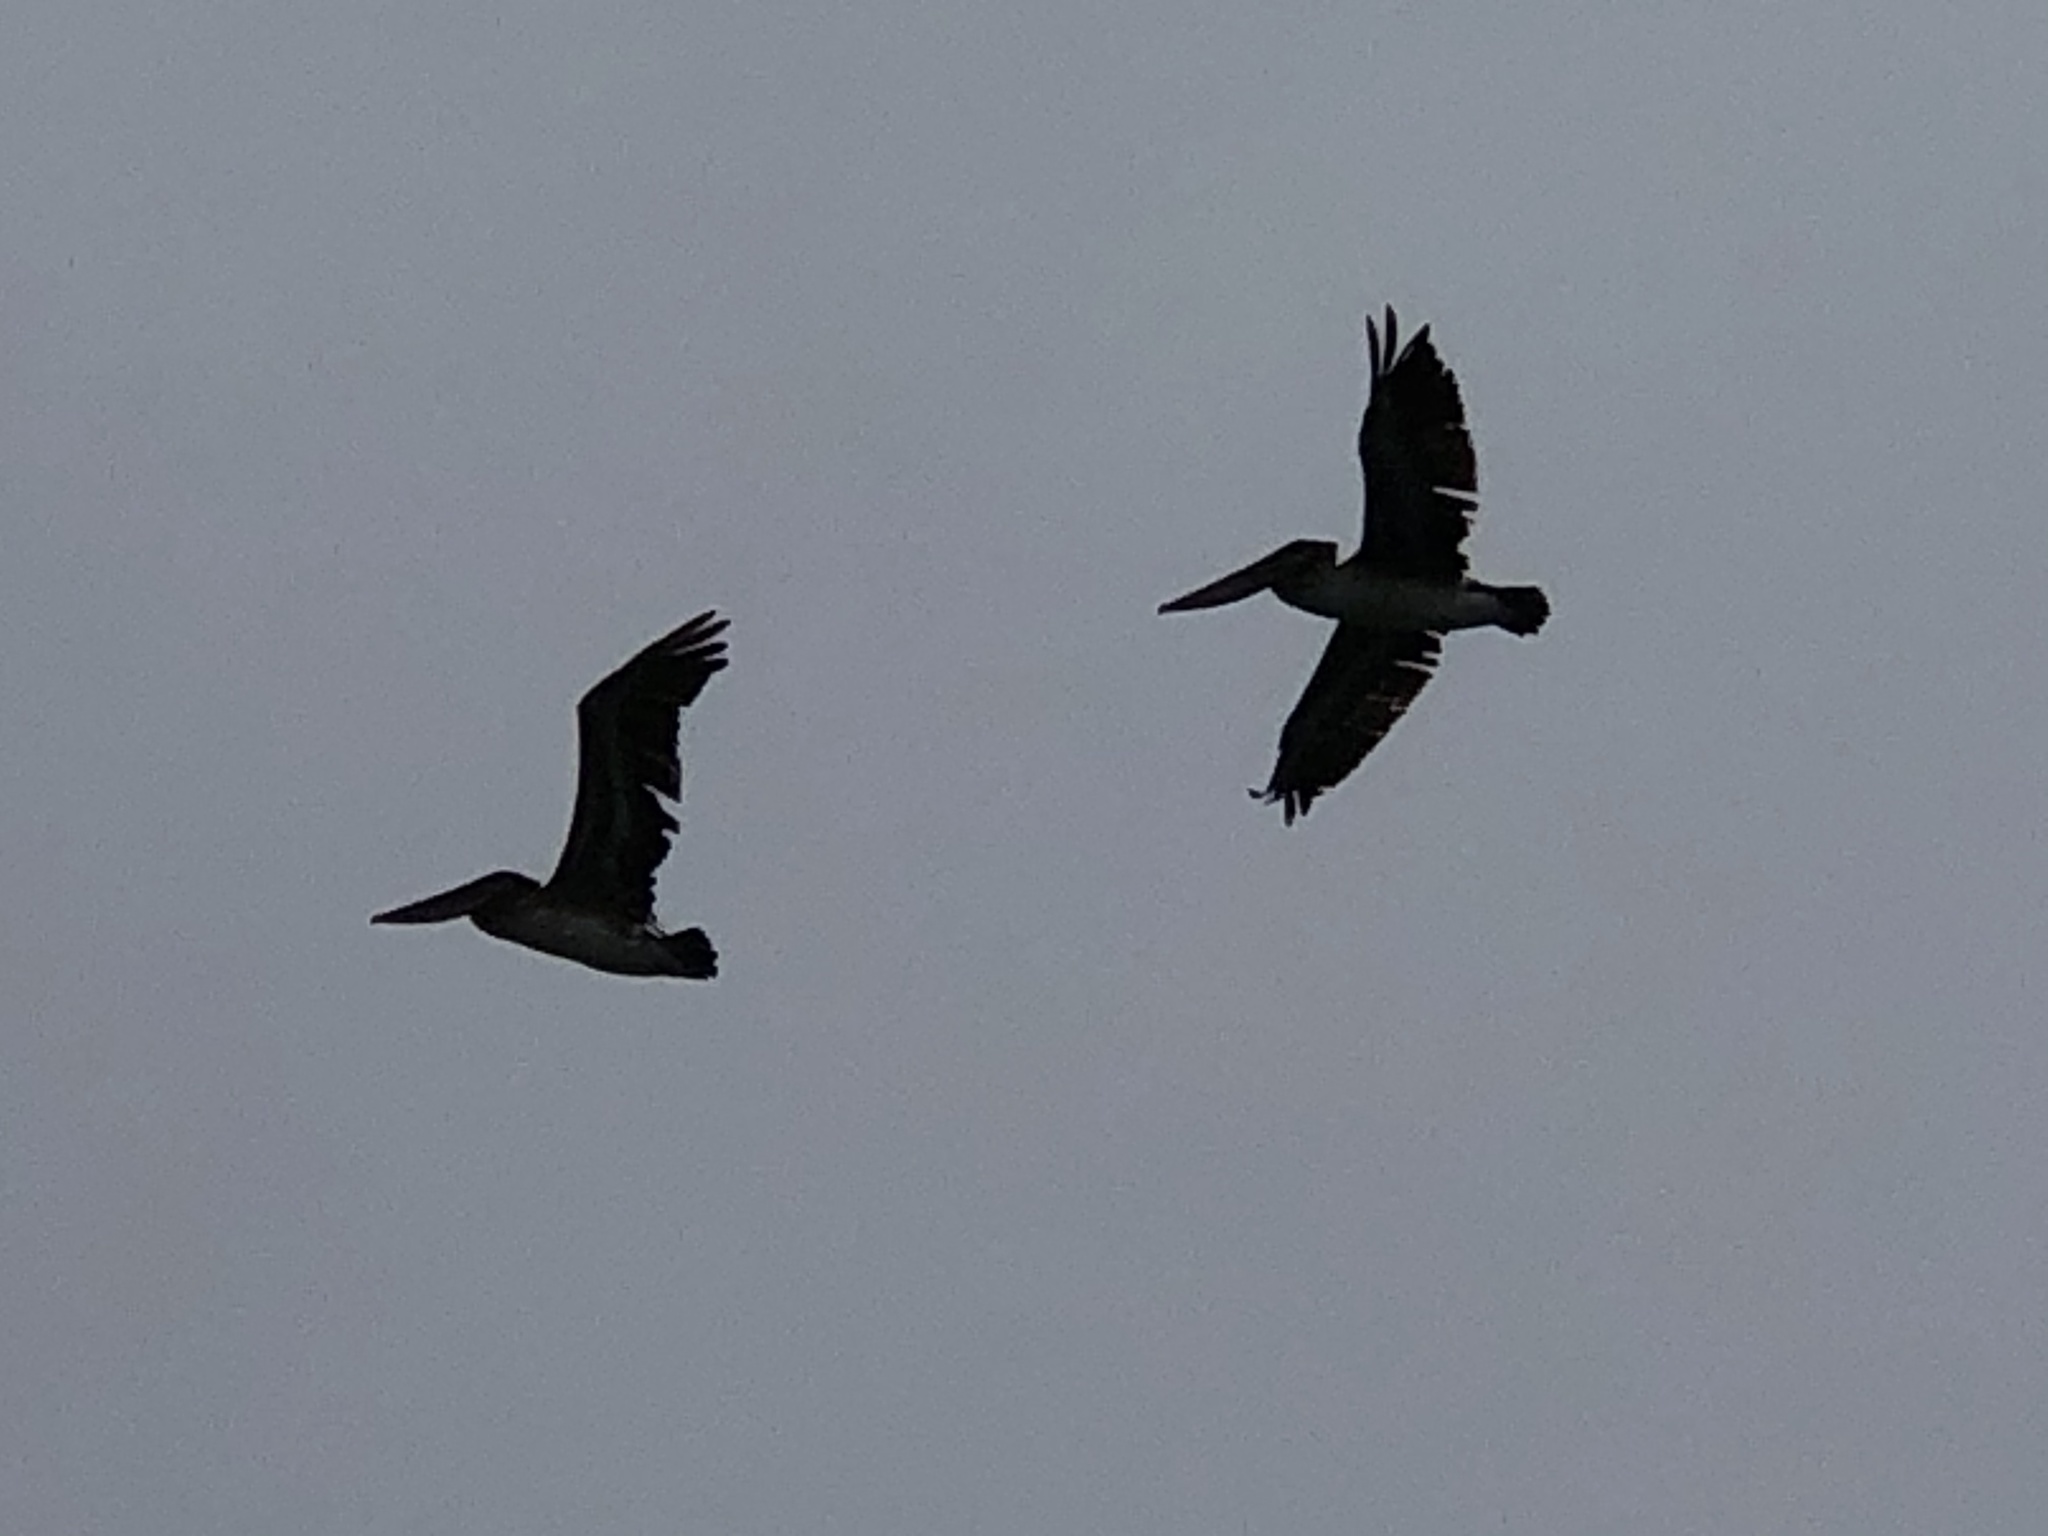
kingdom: Animalia
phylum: Chordata
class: Aves
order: Pelecaniformes
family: Pelecanidae
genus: Pelecanus
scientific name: Pelecanus occidentalis
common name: Brown pelican
